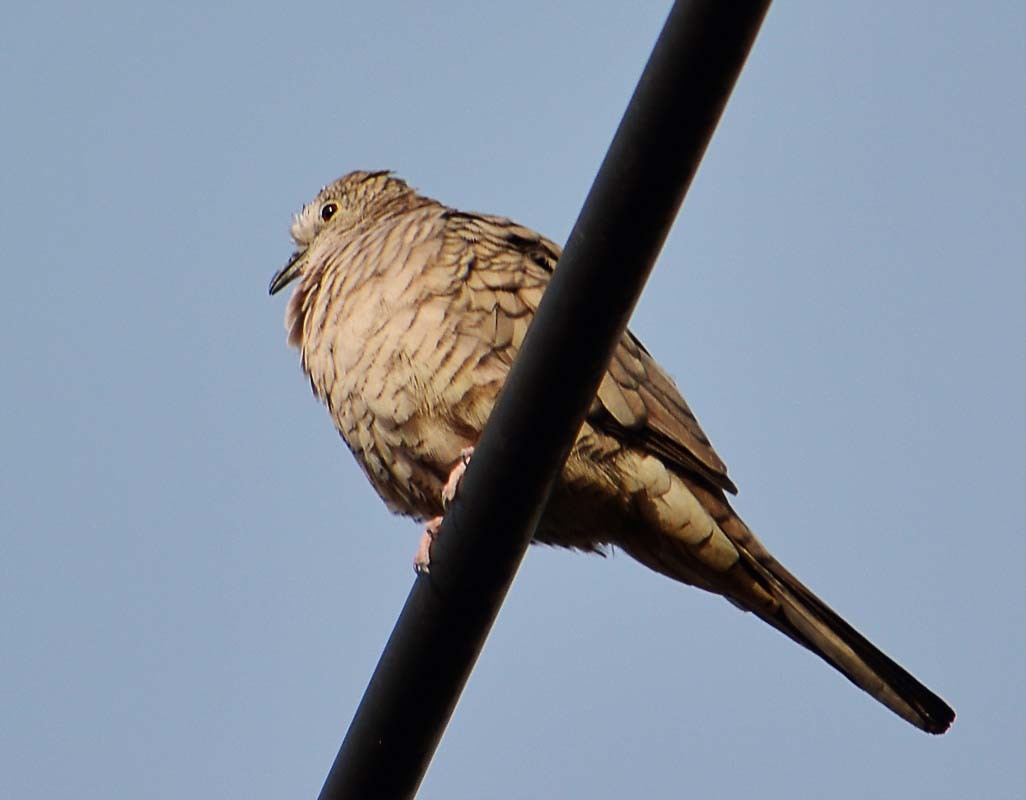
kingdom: Animalia
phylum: Chordata
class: Aves
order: Columbiformes
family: Columbidae
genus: Columbina
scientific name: Columbina inca
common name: Inca dove
